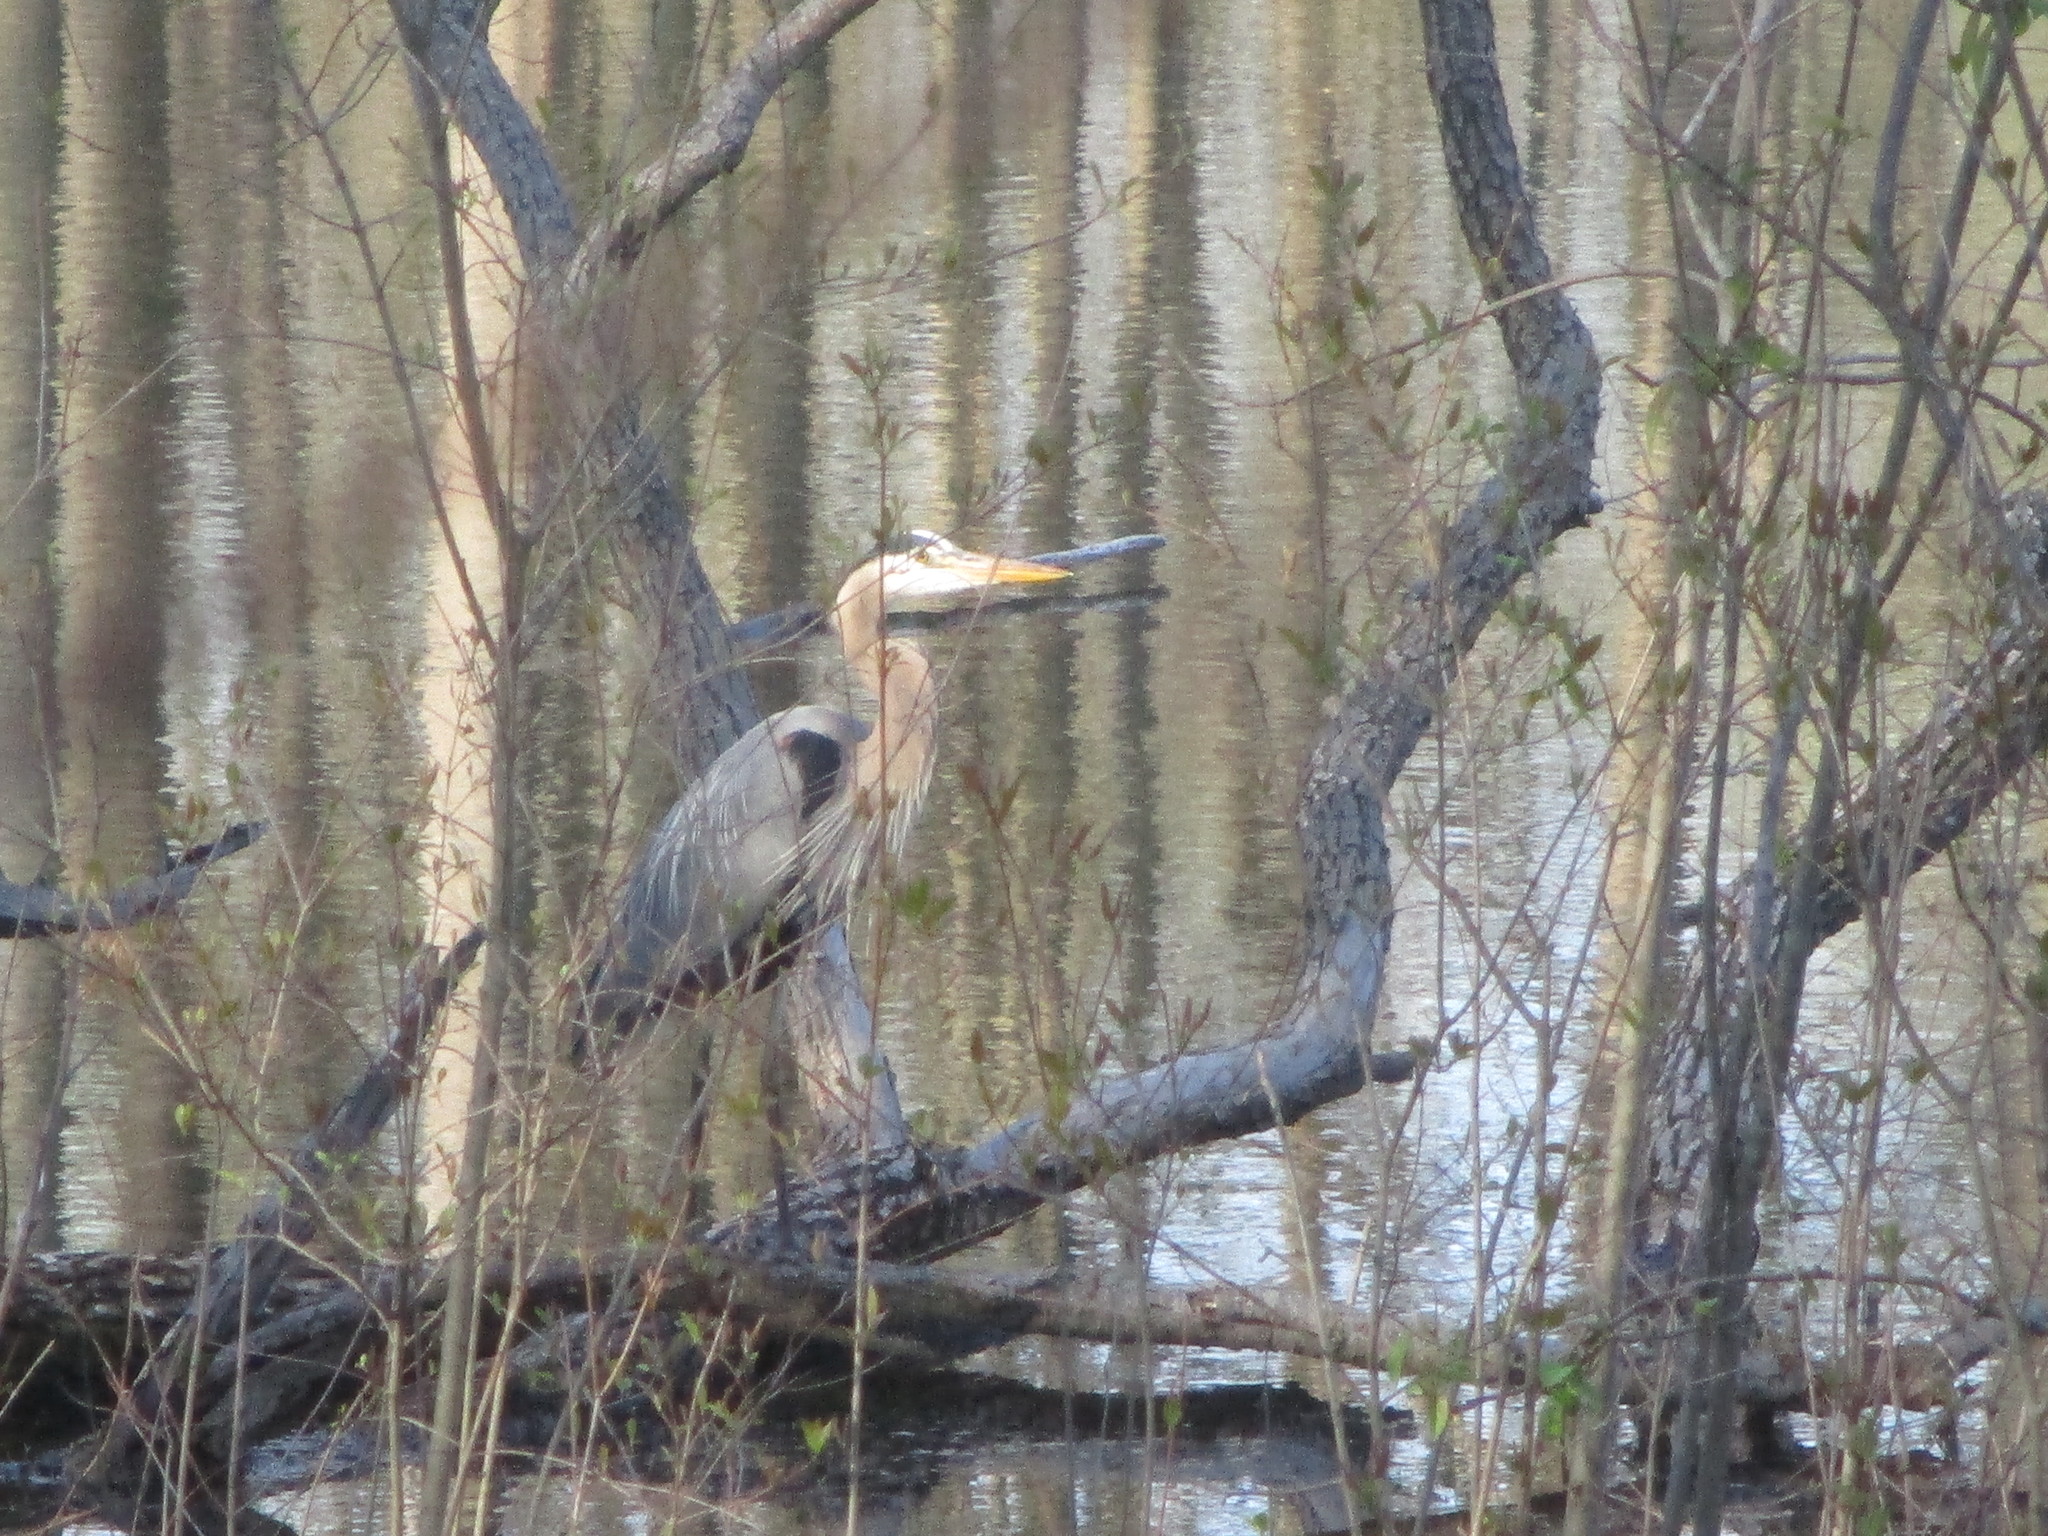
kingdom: Animalia
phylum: Chordata
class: Aves
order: Pelecaniformes
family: Ardeidae
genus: Ardea
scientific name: Ardea herodias
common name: Great blue heron
